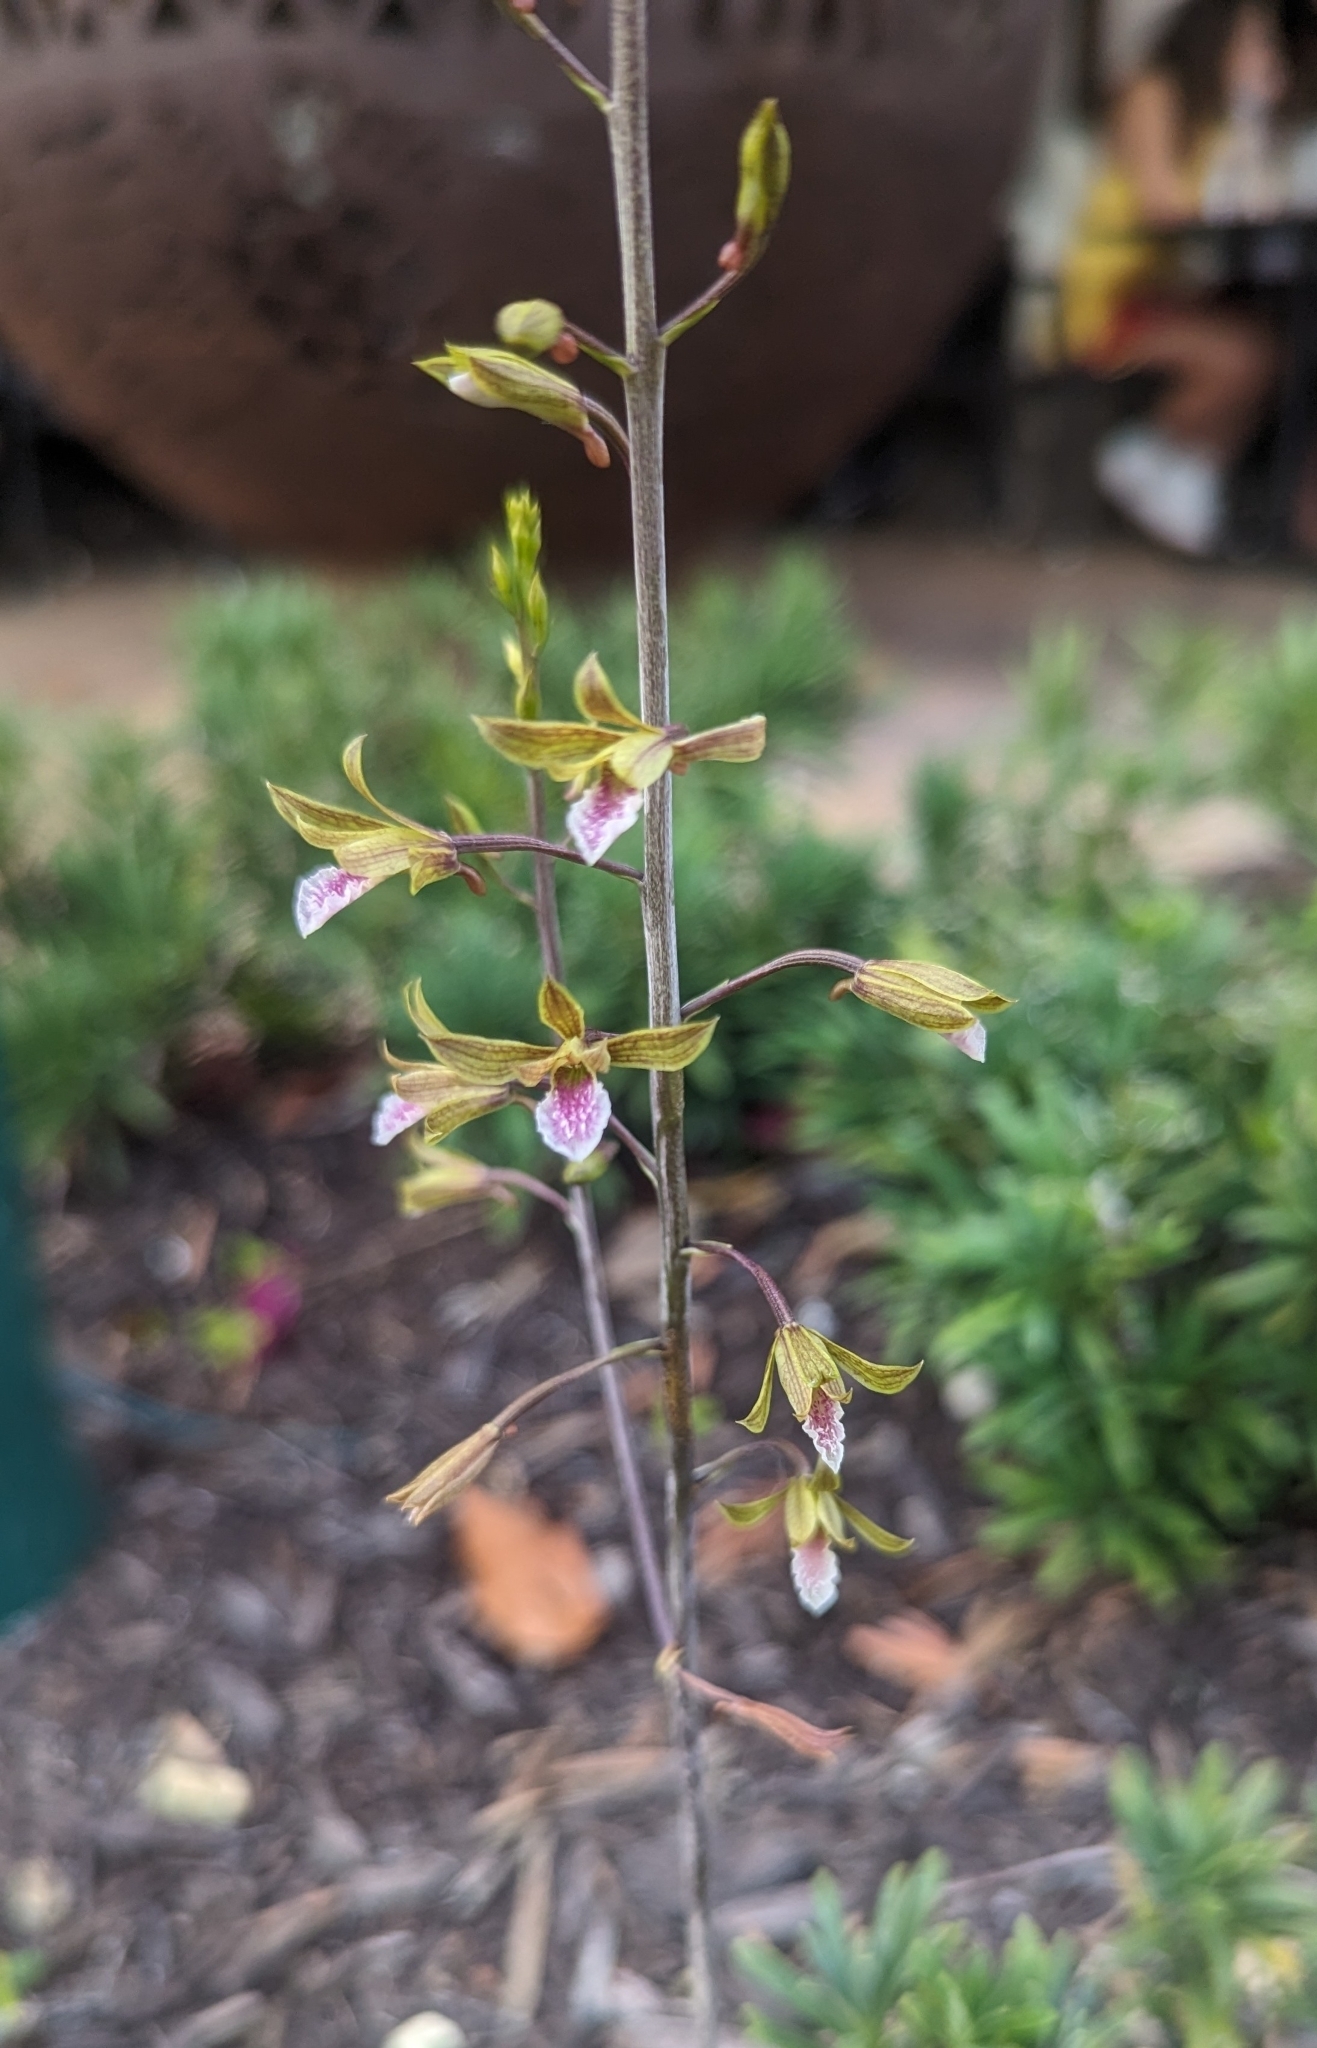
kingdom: Plantae
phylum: Tracheophyta
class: Liliopsida
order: Asparagales
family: Orchidaceae
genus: Eulophia
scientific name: Eulophia graminea
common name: Orchid
